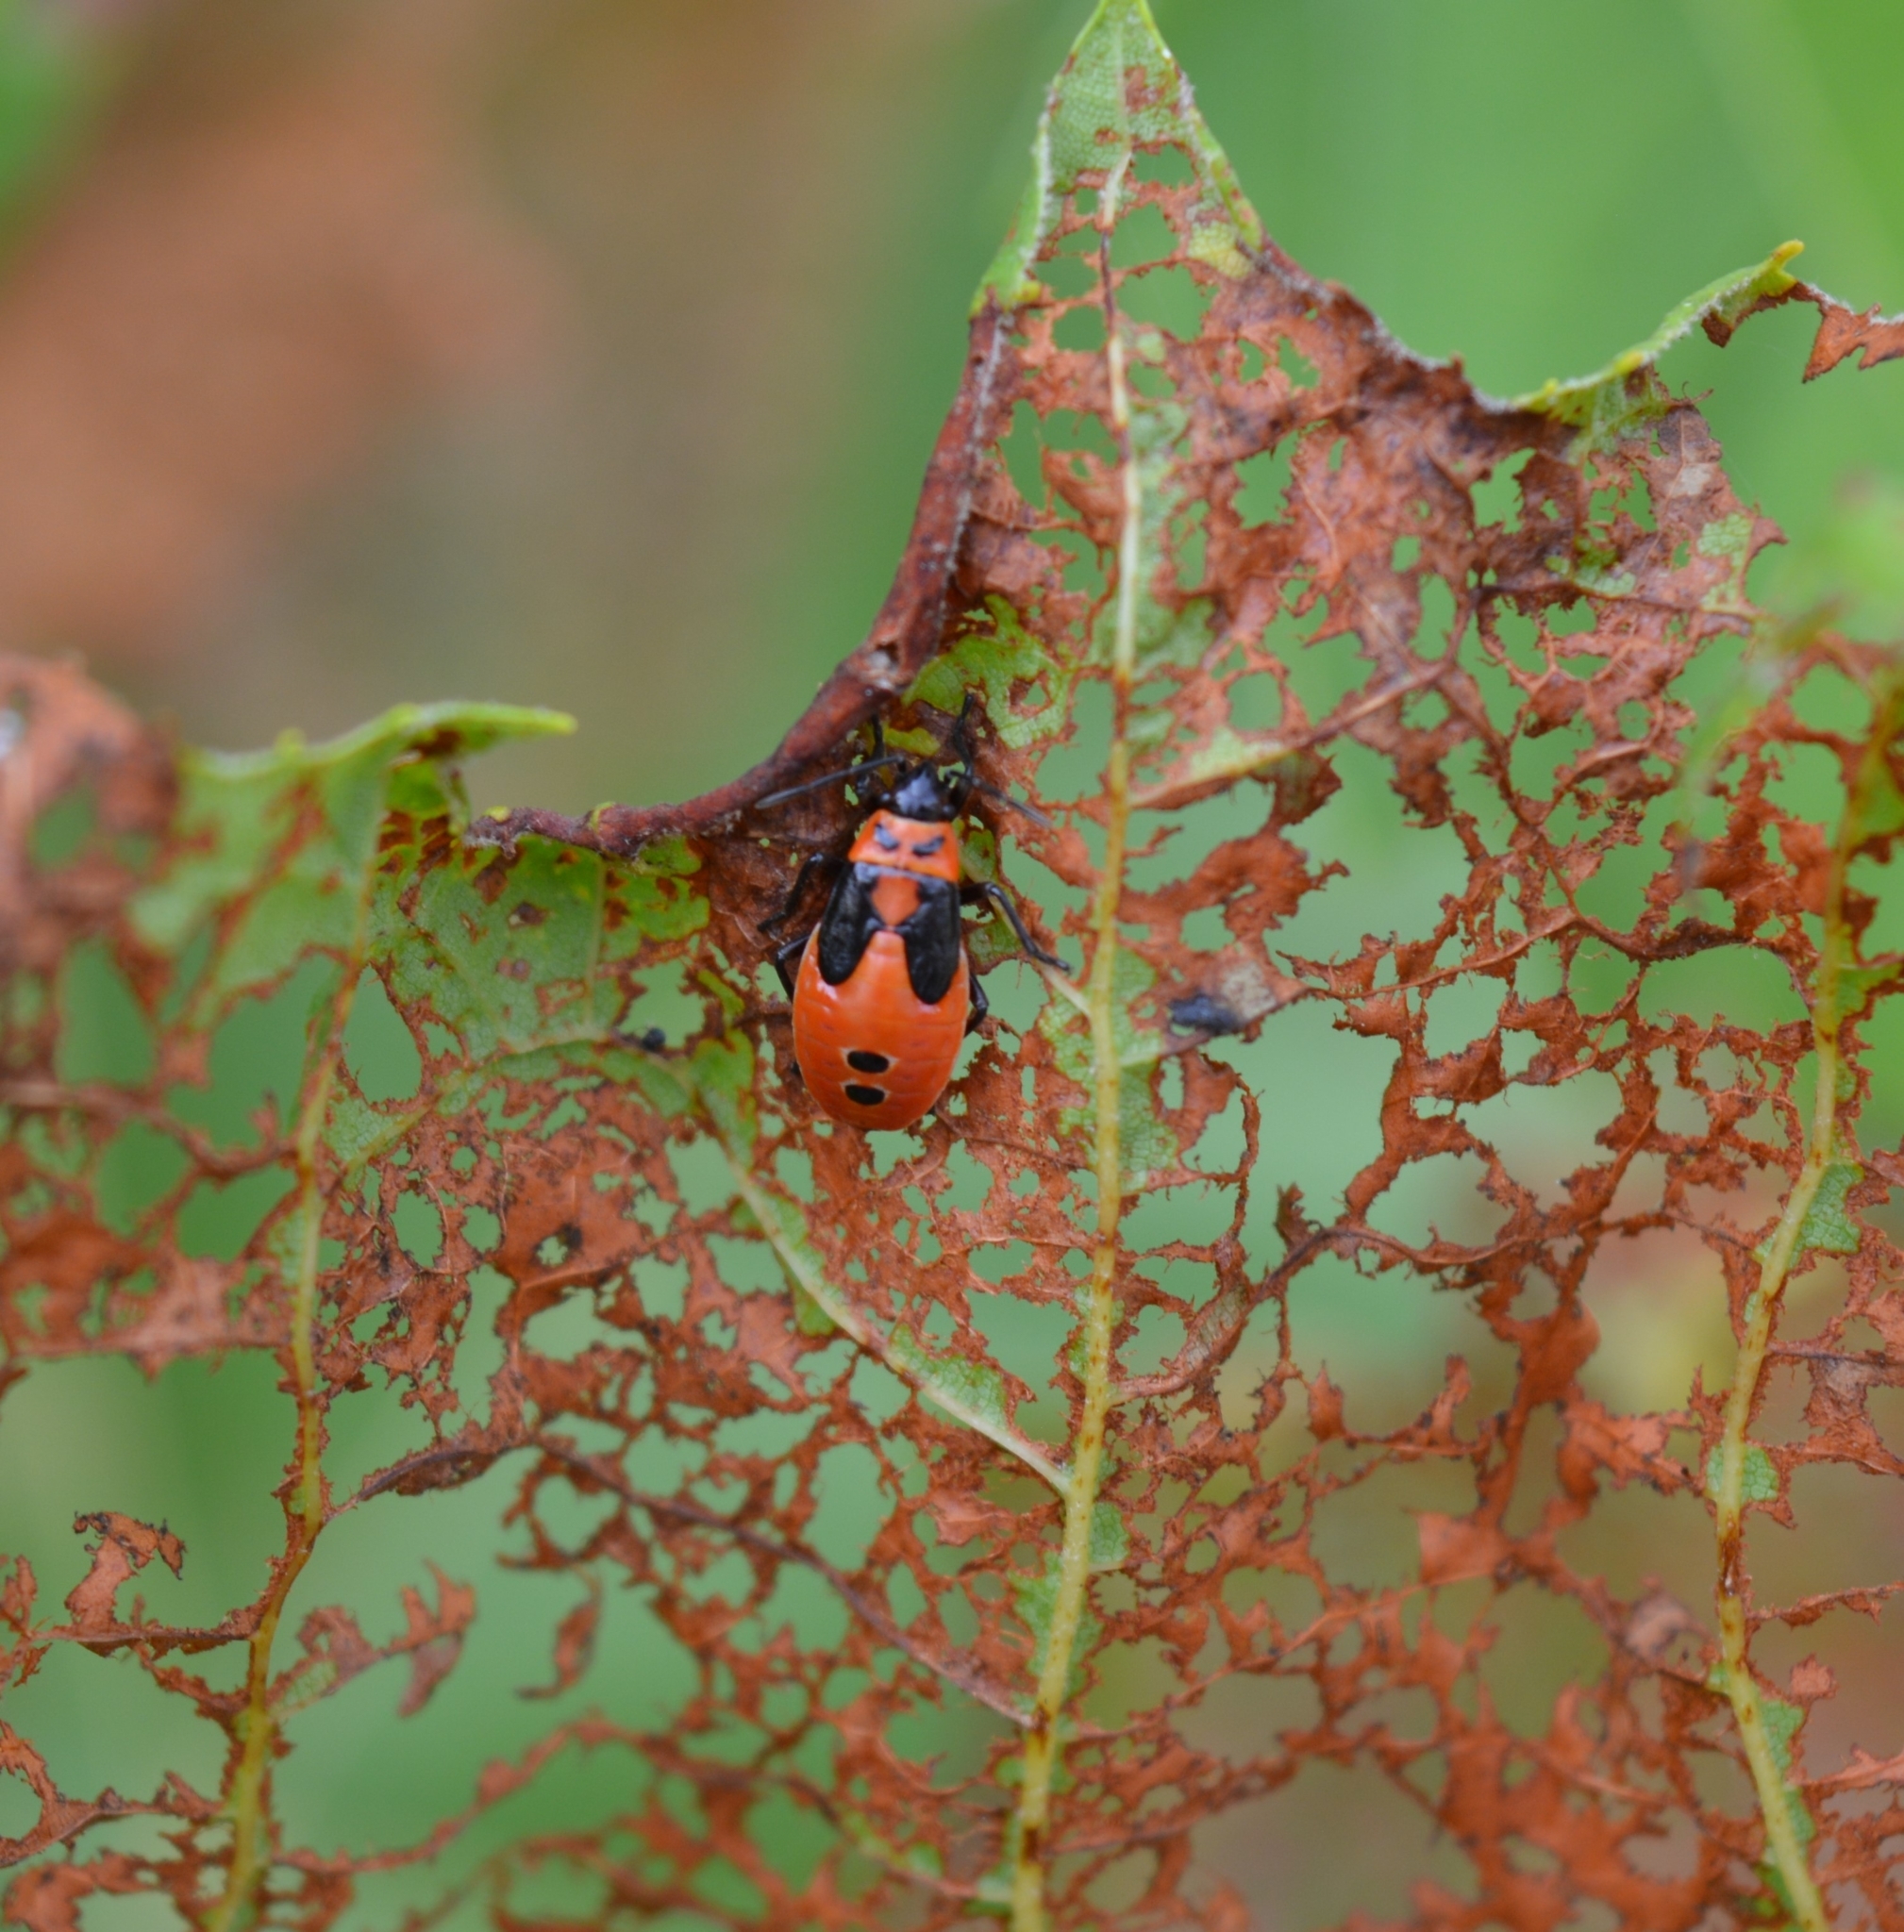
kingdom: Animalia
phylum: Arthropoda
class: Insecta
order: Hemiptera
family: Lygaeidae
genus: Lygaeus
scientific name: Lygaeus turcicus
